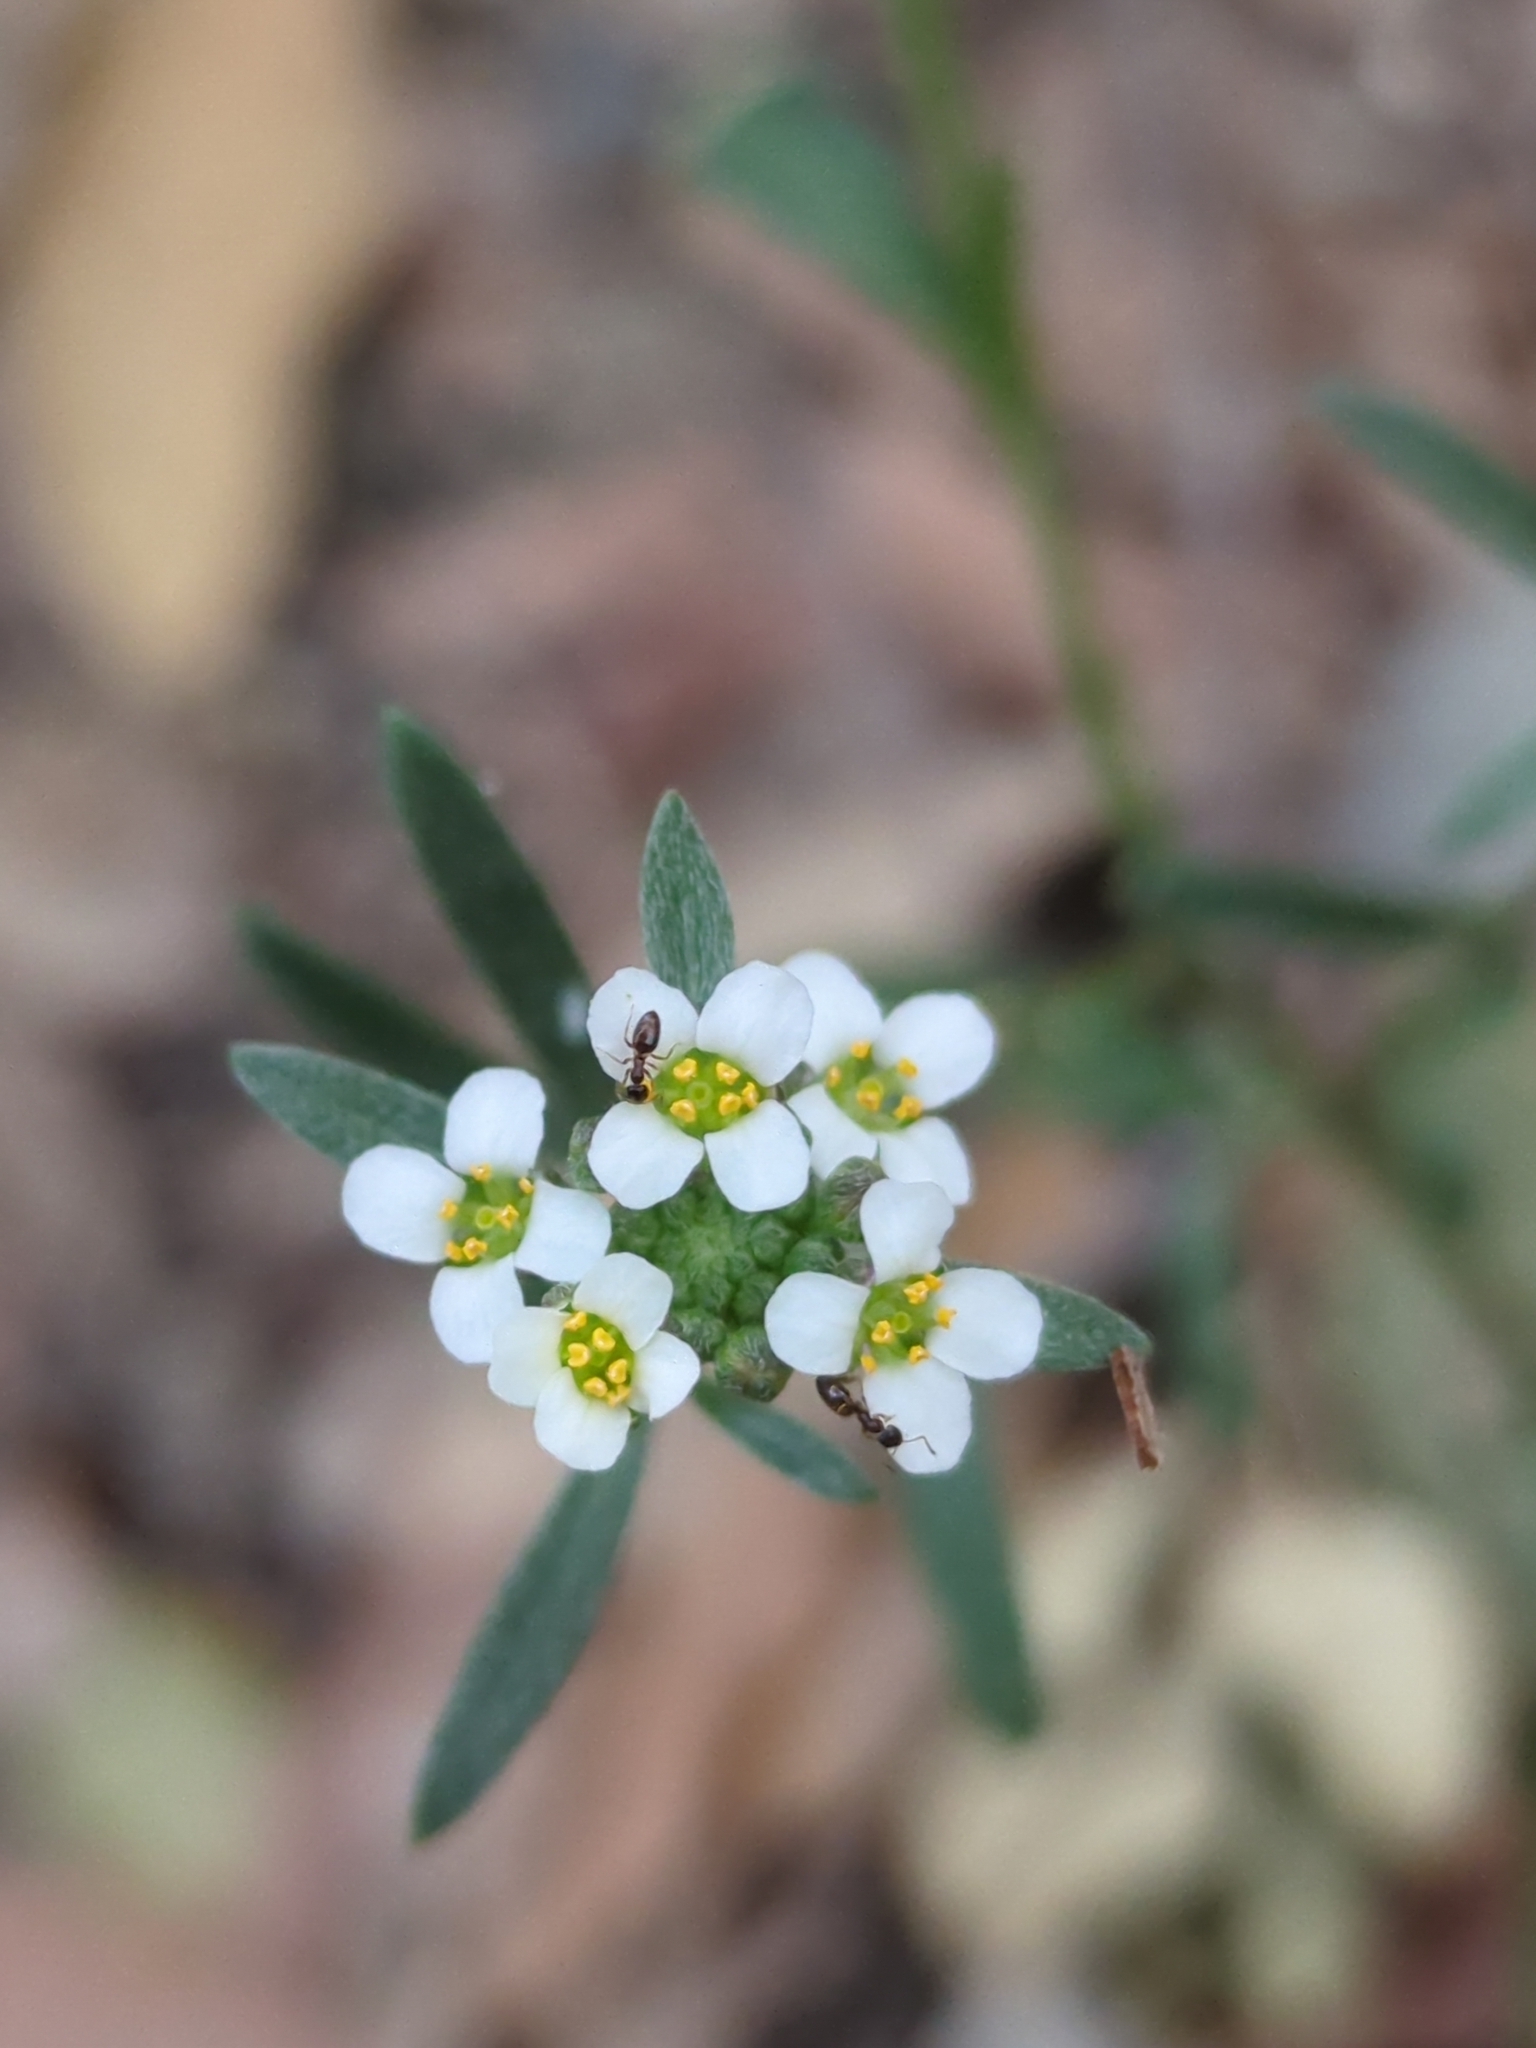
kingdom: Plantae
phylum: Tracheophyta
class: Magnoliopsida
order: Brassicales
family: Brassicaceae
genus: Lobularia
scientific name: Lobularia maritima
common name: Sweet alison
